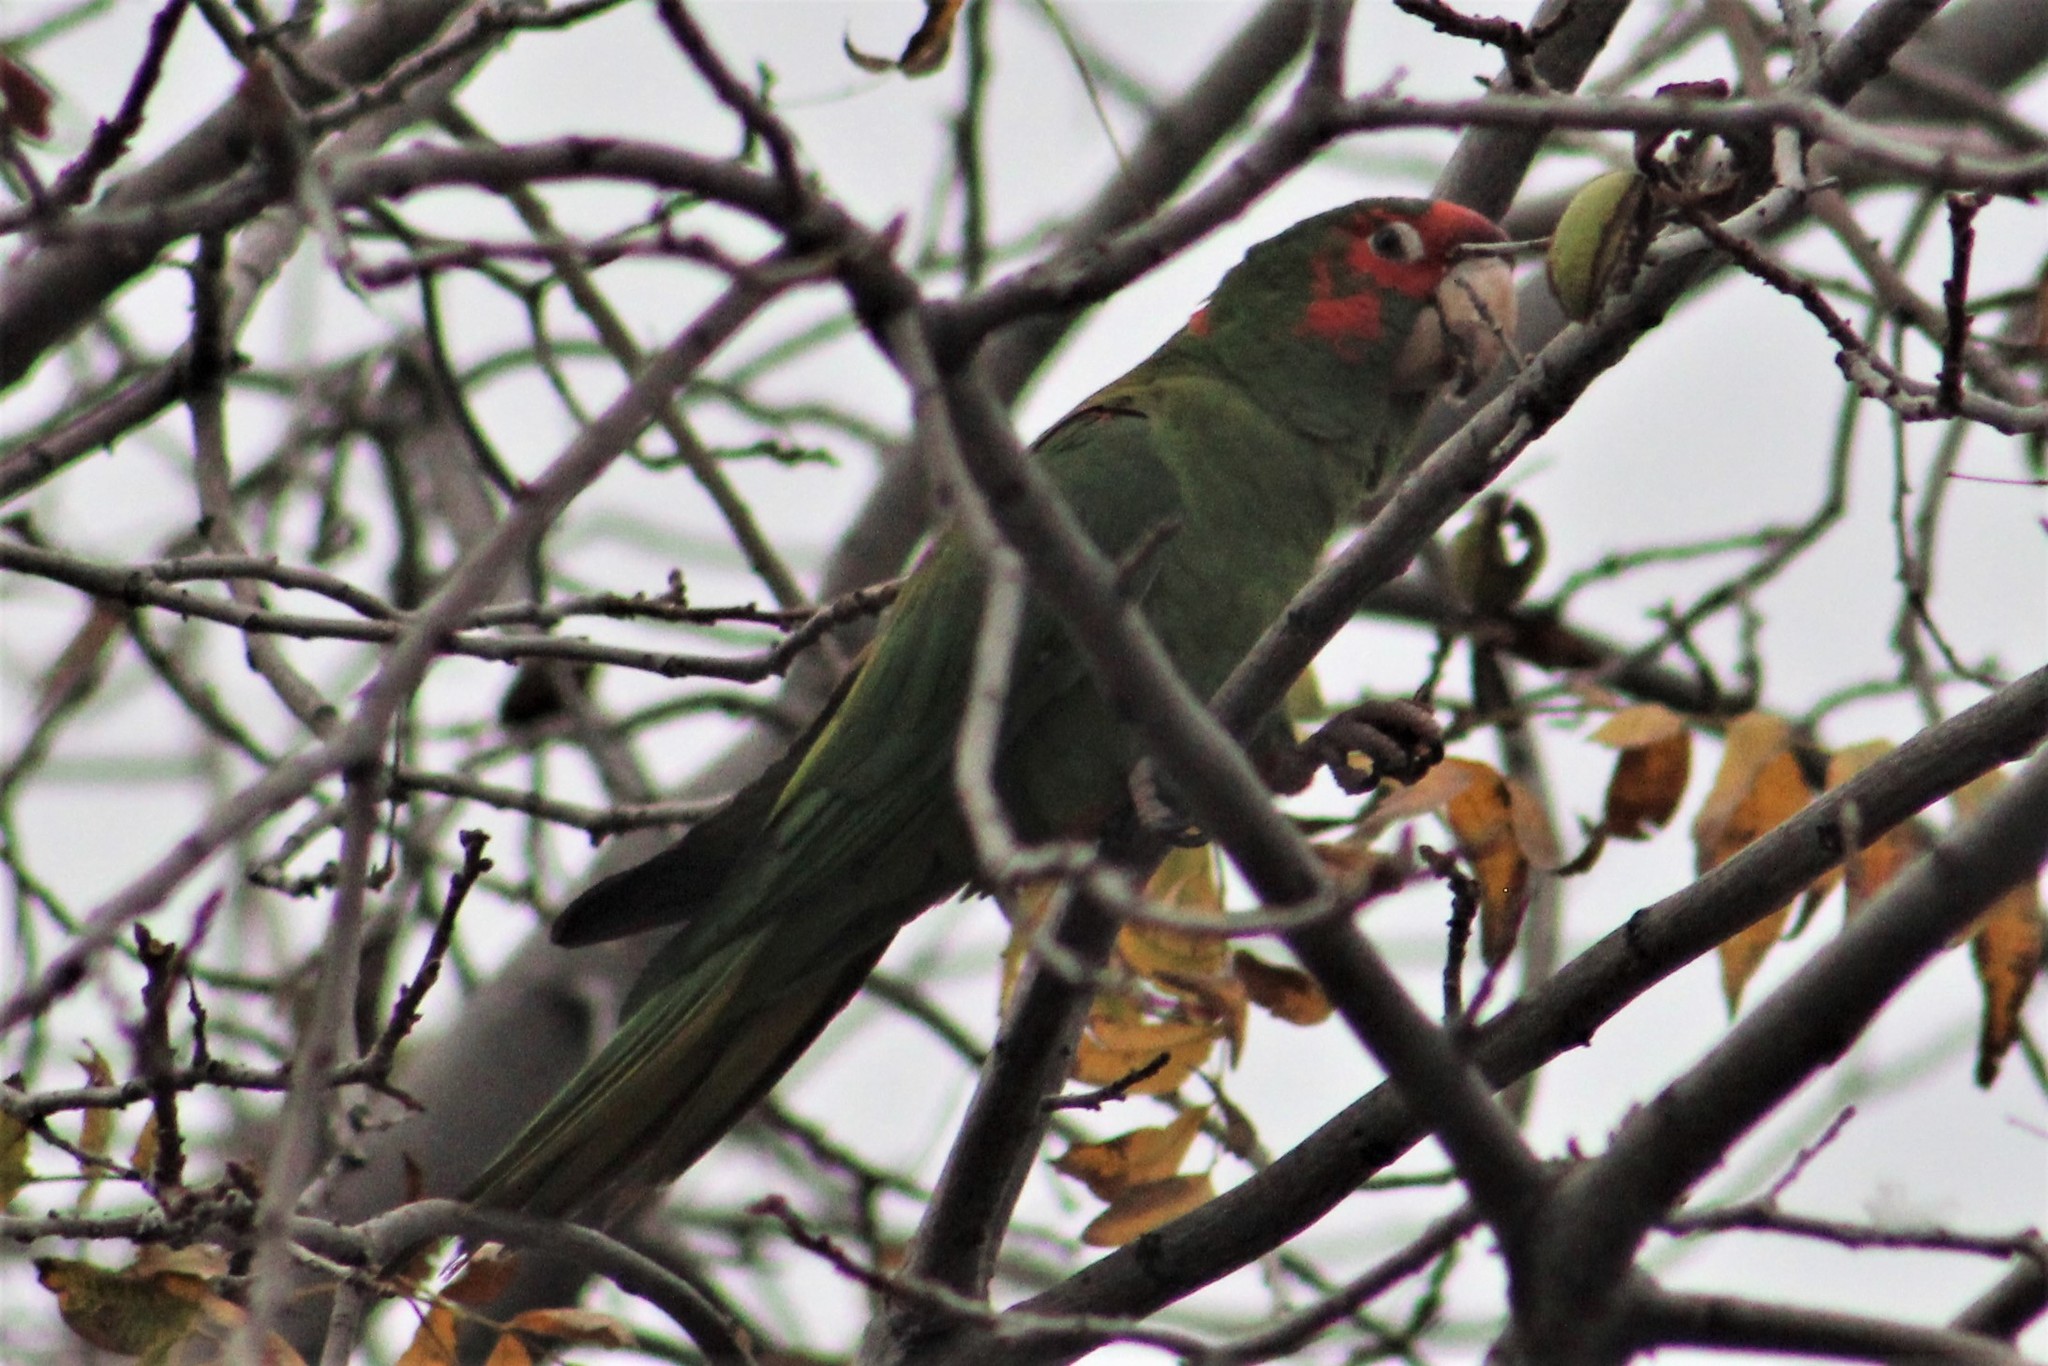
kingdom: Animalia
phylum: Chordata
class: Aves
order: Psittaciformes
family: Psittacidae
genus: Aratinga
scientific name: Aratinga mitrata
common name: Mitred parakeet
